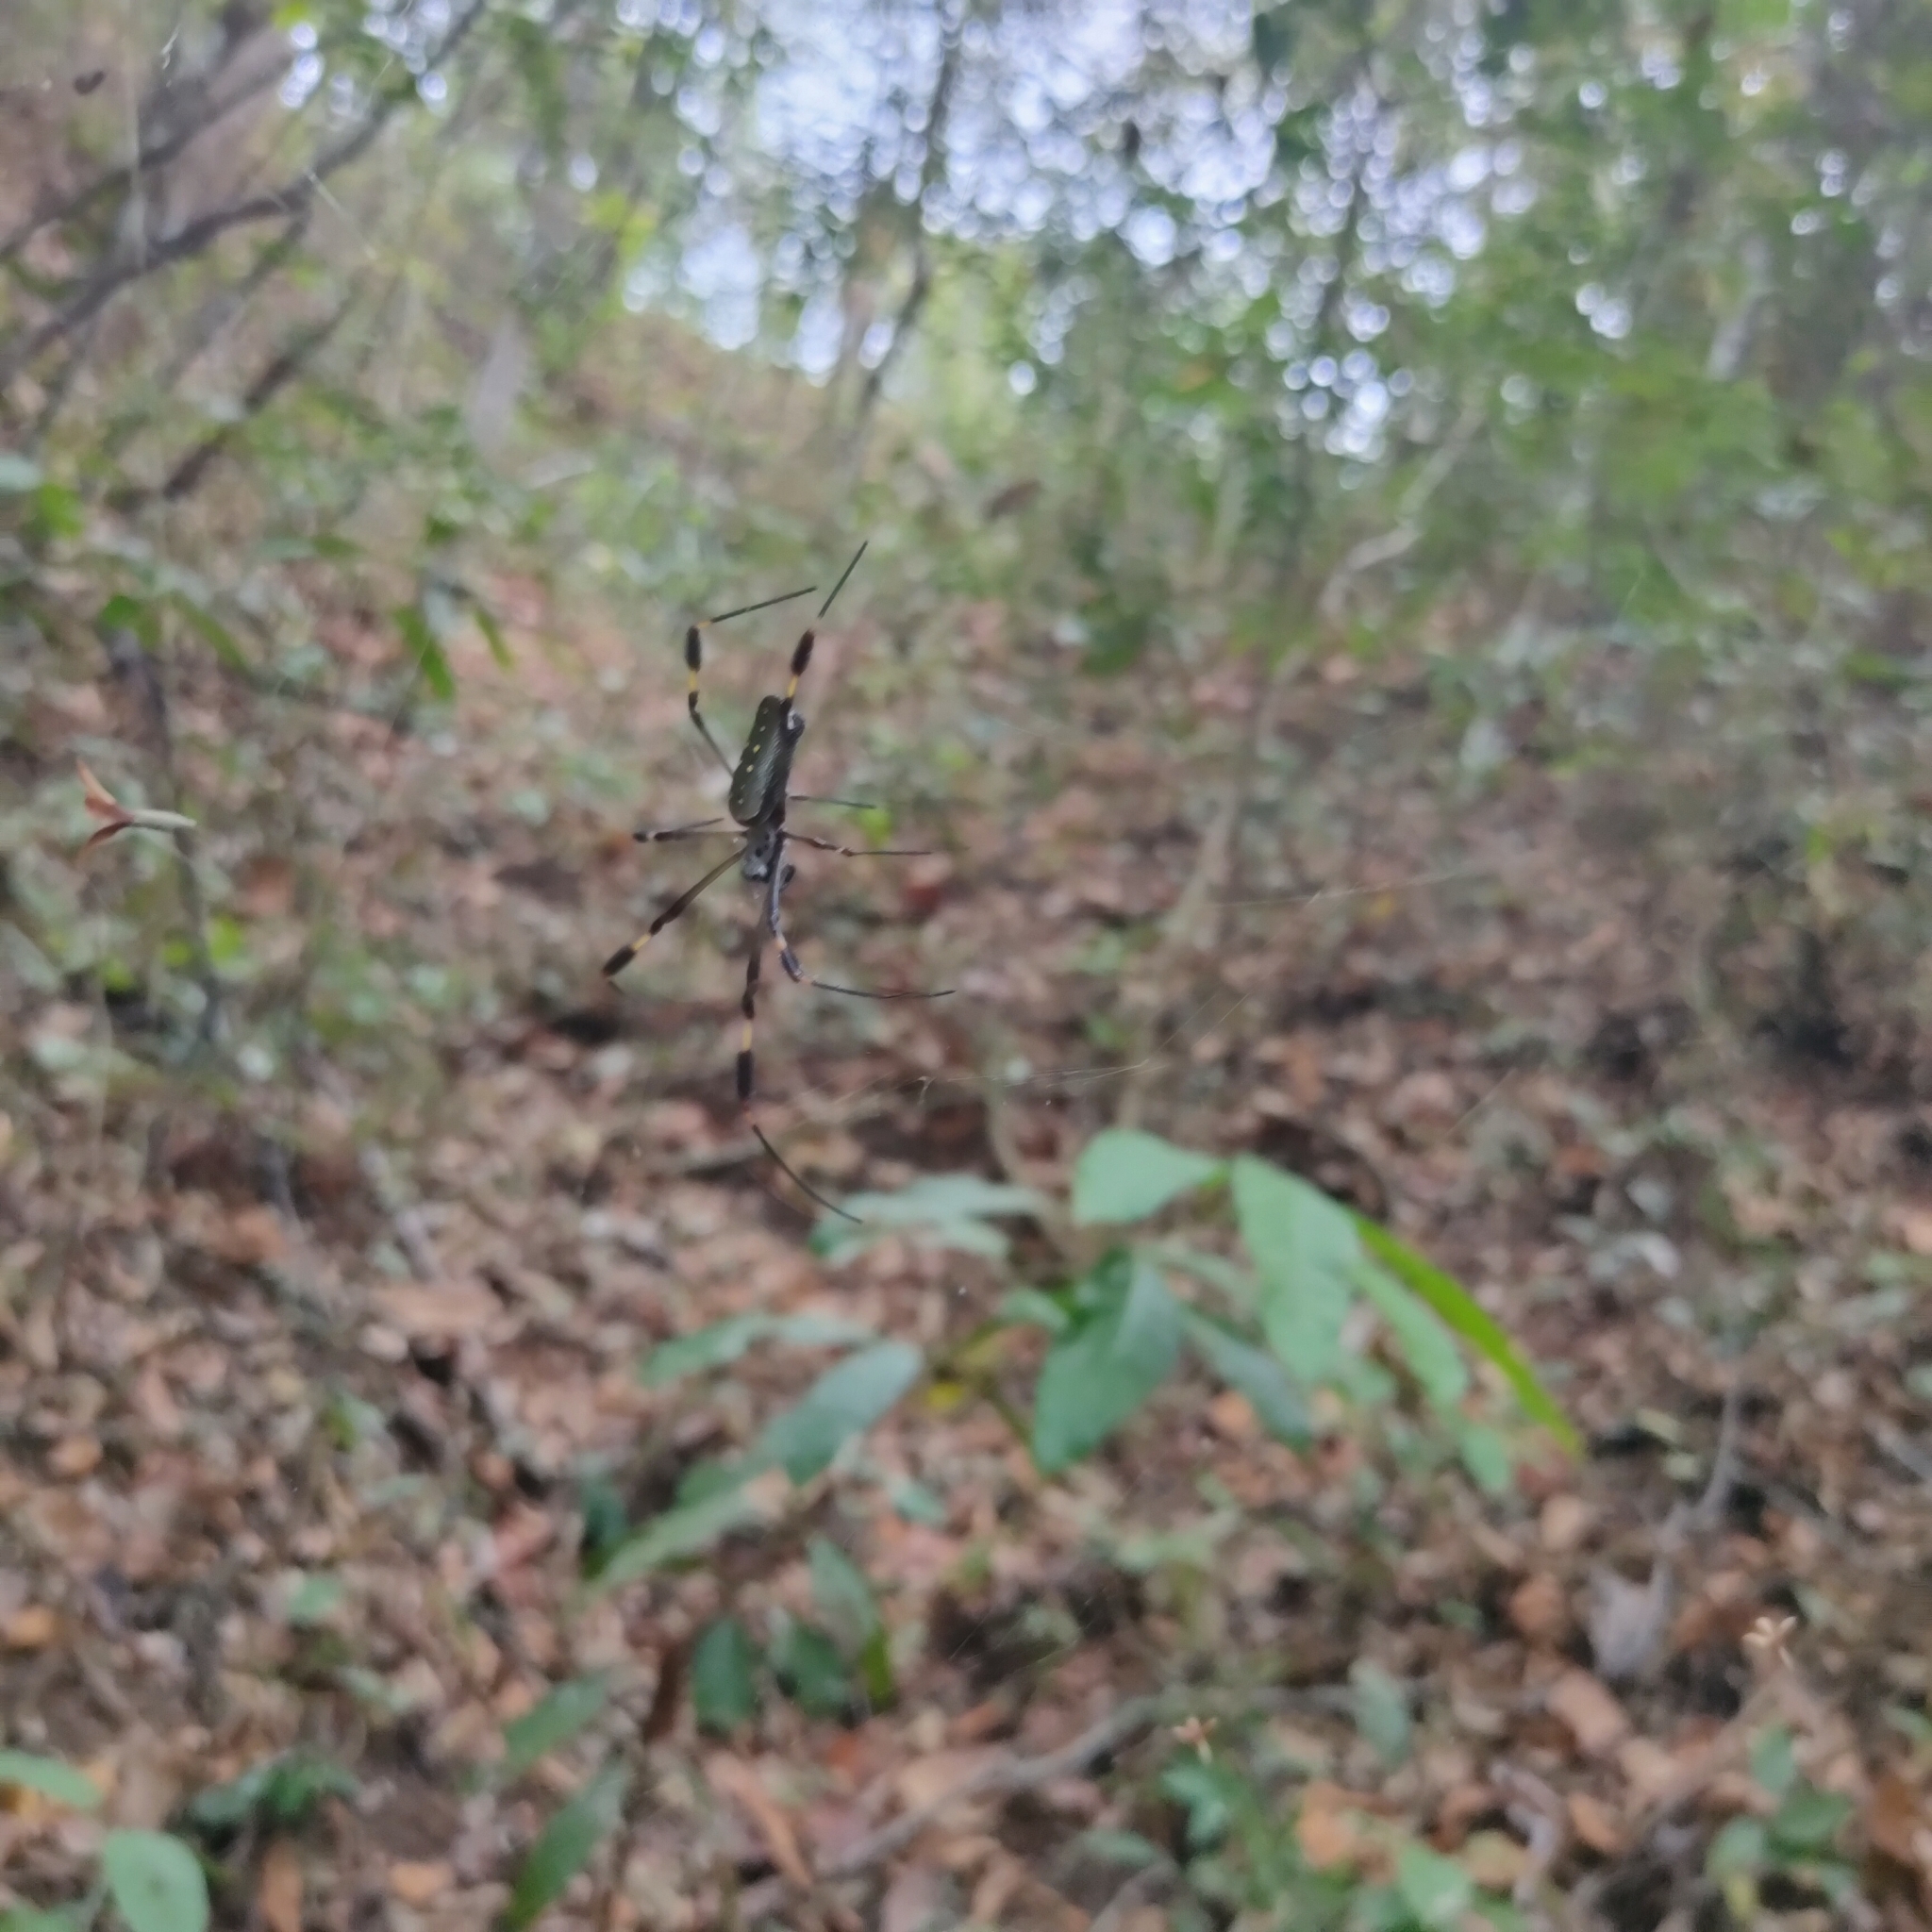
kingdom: Animalia
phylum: Arthropoda
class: Arachnida
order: Araneae
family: Araneidae
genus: Trichonephila
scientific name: Trichonephila clavipes
